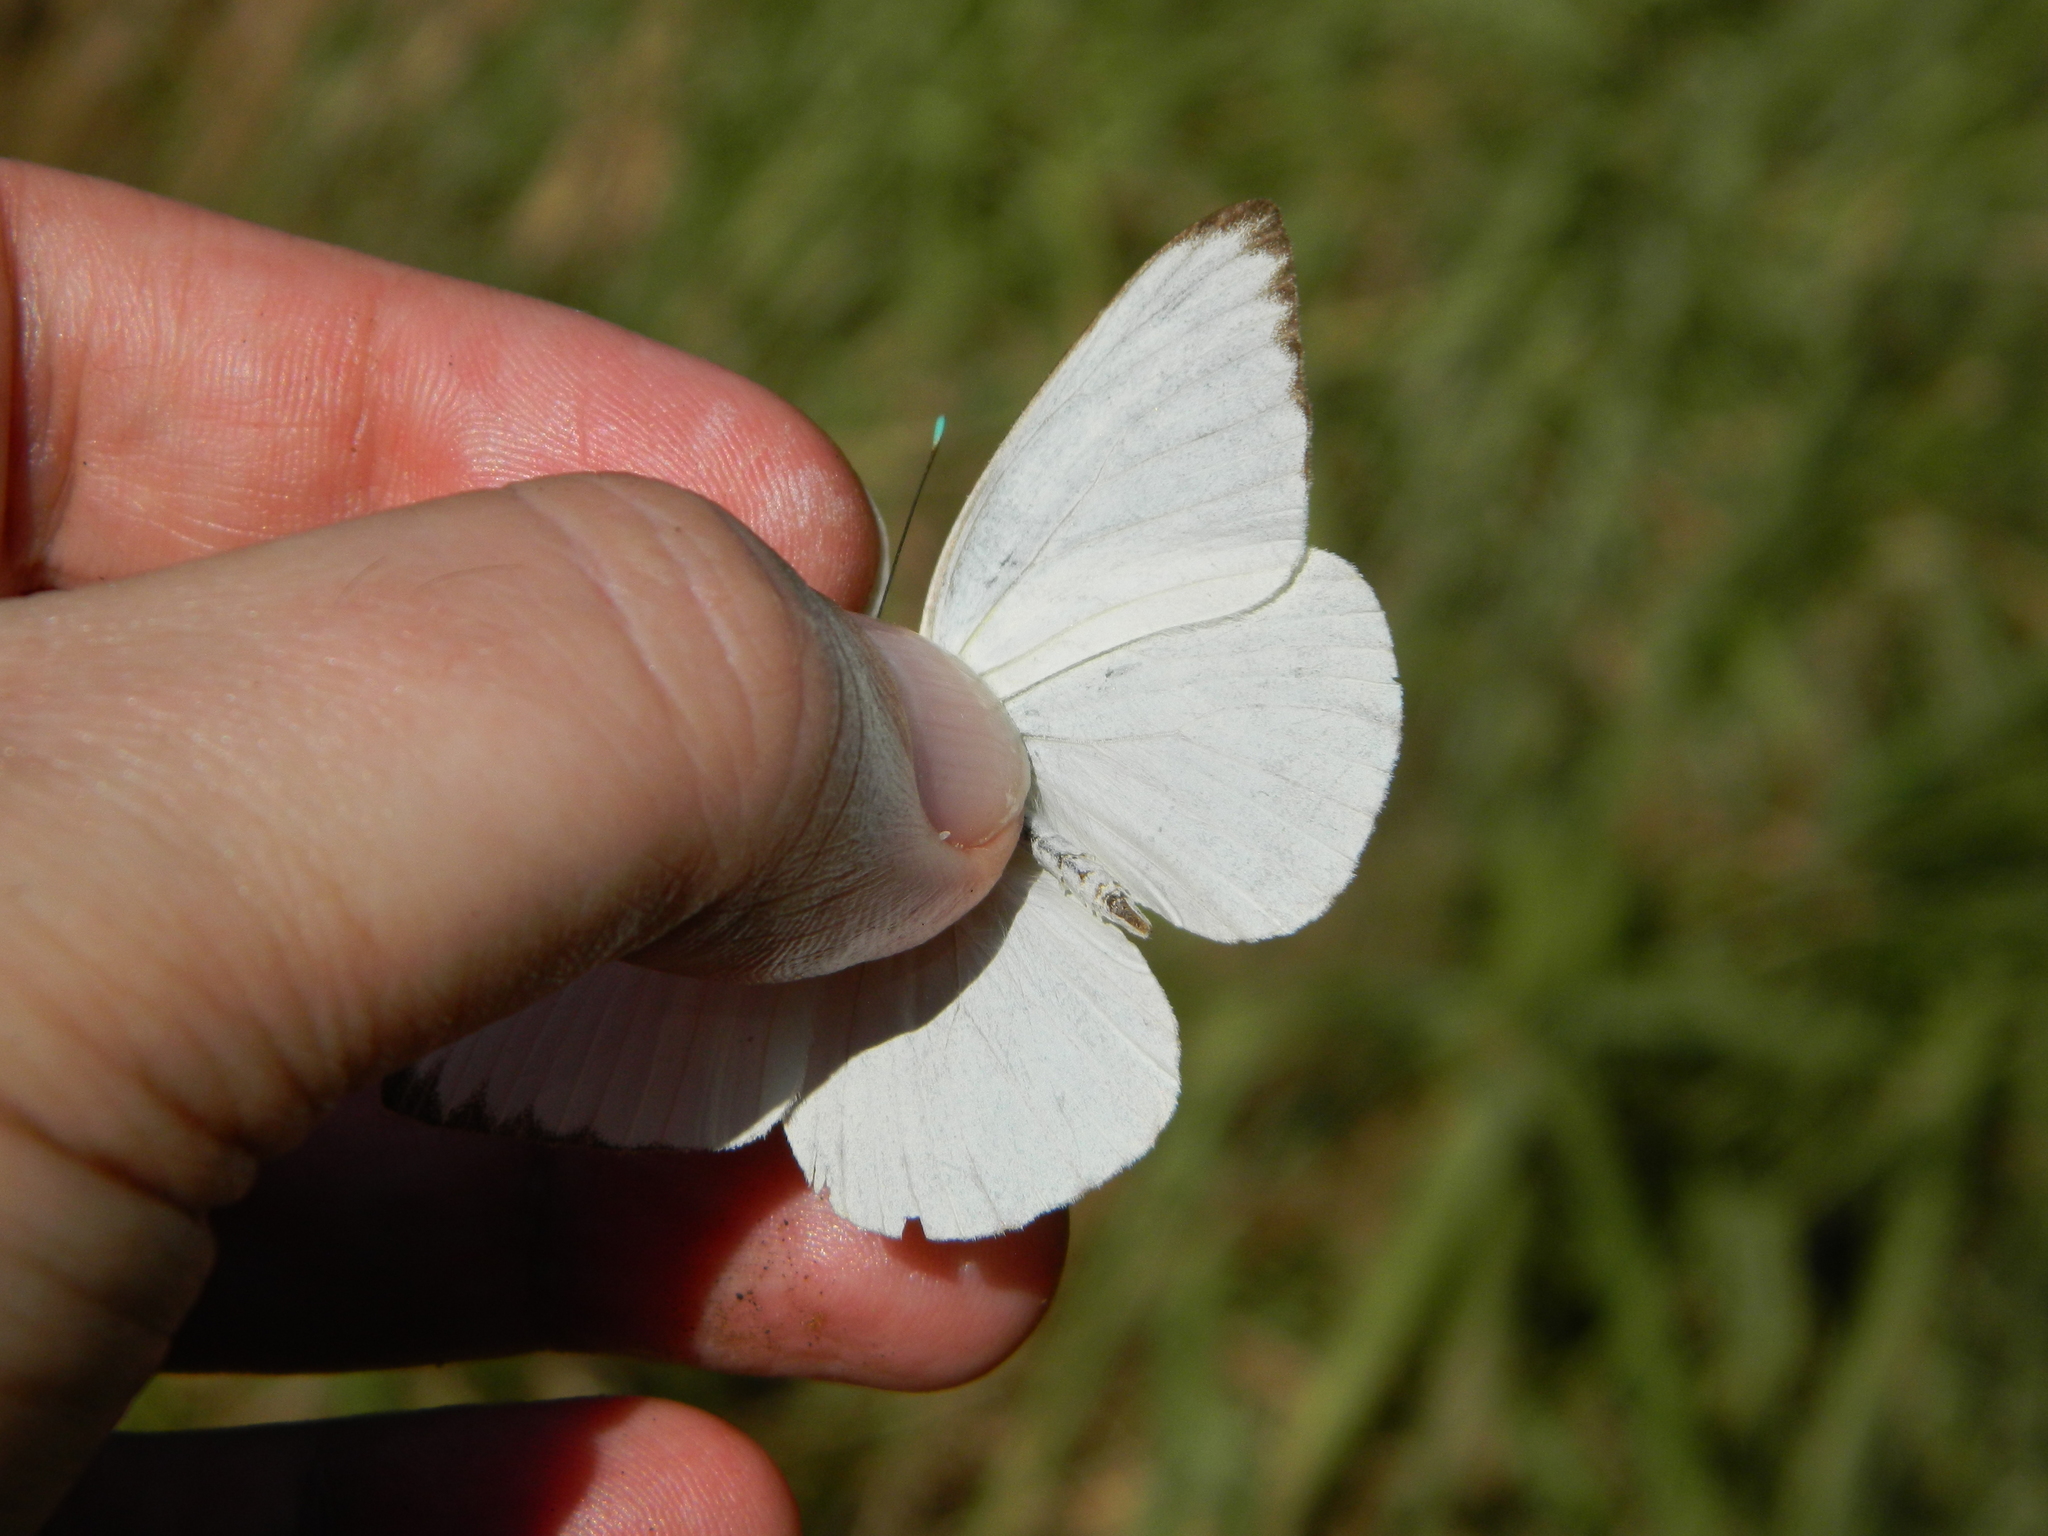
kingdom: Animalia
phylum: Arthropoda
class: Insecta
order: Lepidoptera
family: Pieridae
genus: Ascia
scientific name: Ascia monuste
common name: Great southern white
